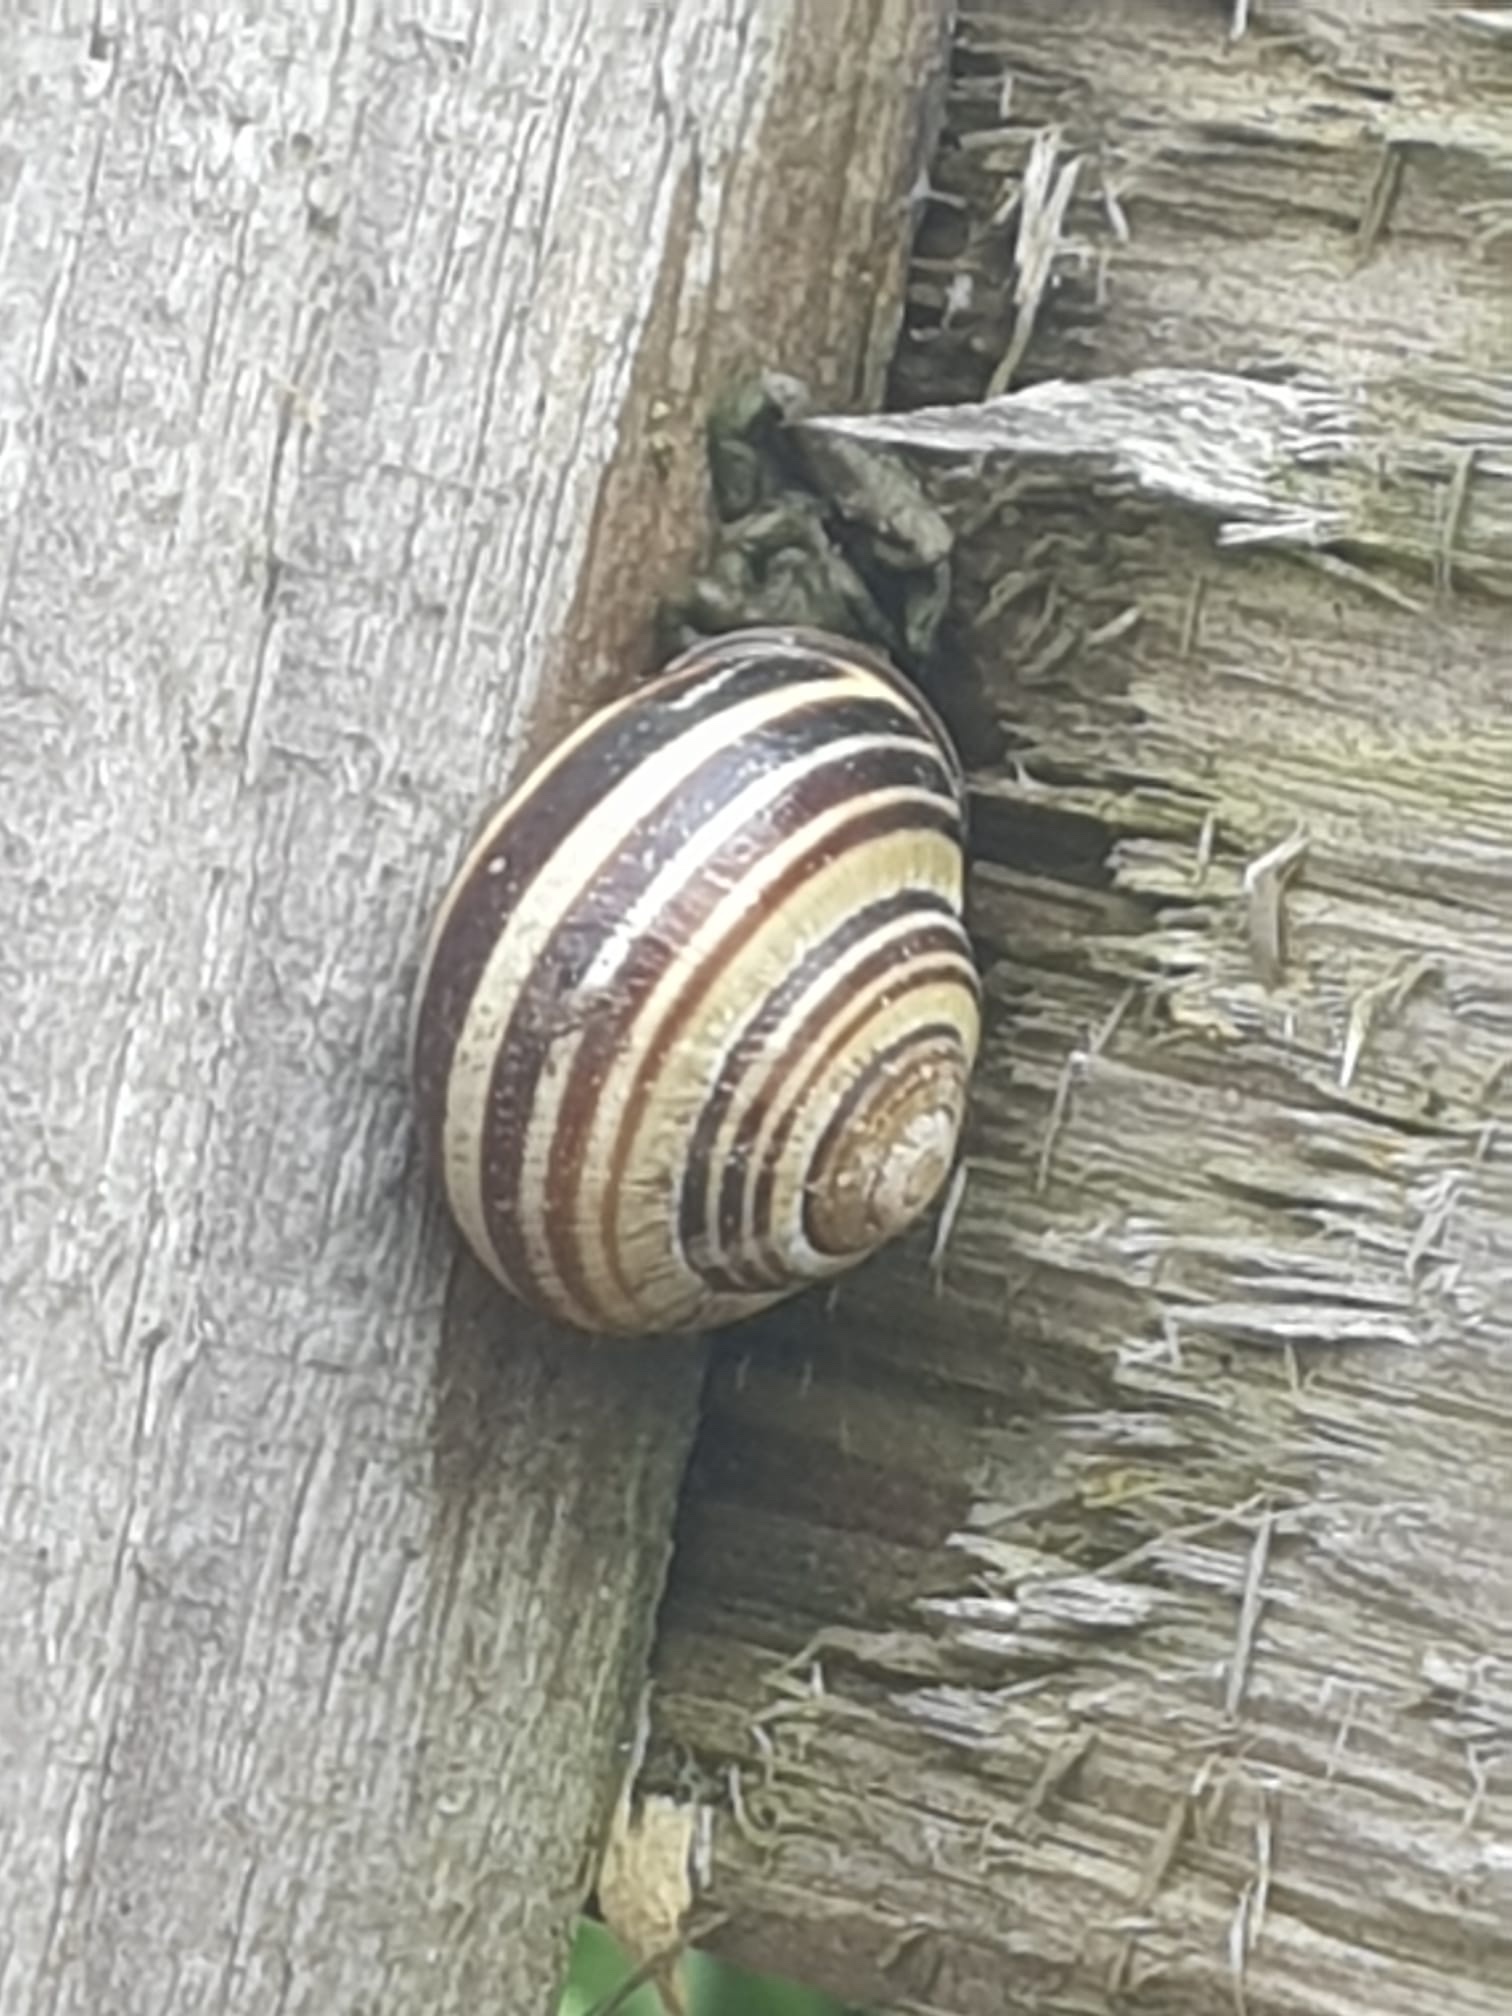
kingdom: Animalia
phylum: Mollusca
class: Gastropoda
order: Stylommatophora
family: Helicidae
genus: Cepaea
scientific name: Cepaea nemoralis
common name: Grovesnail
